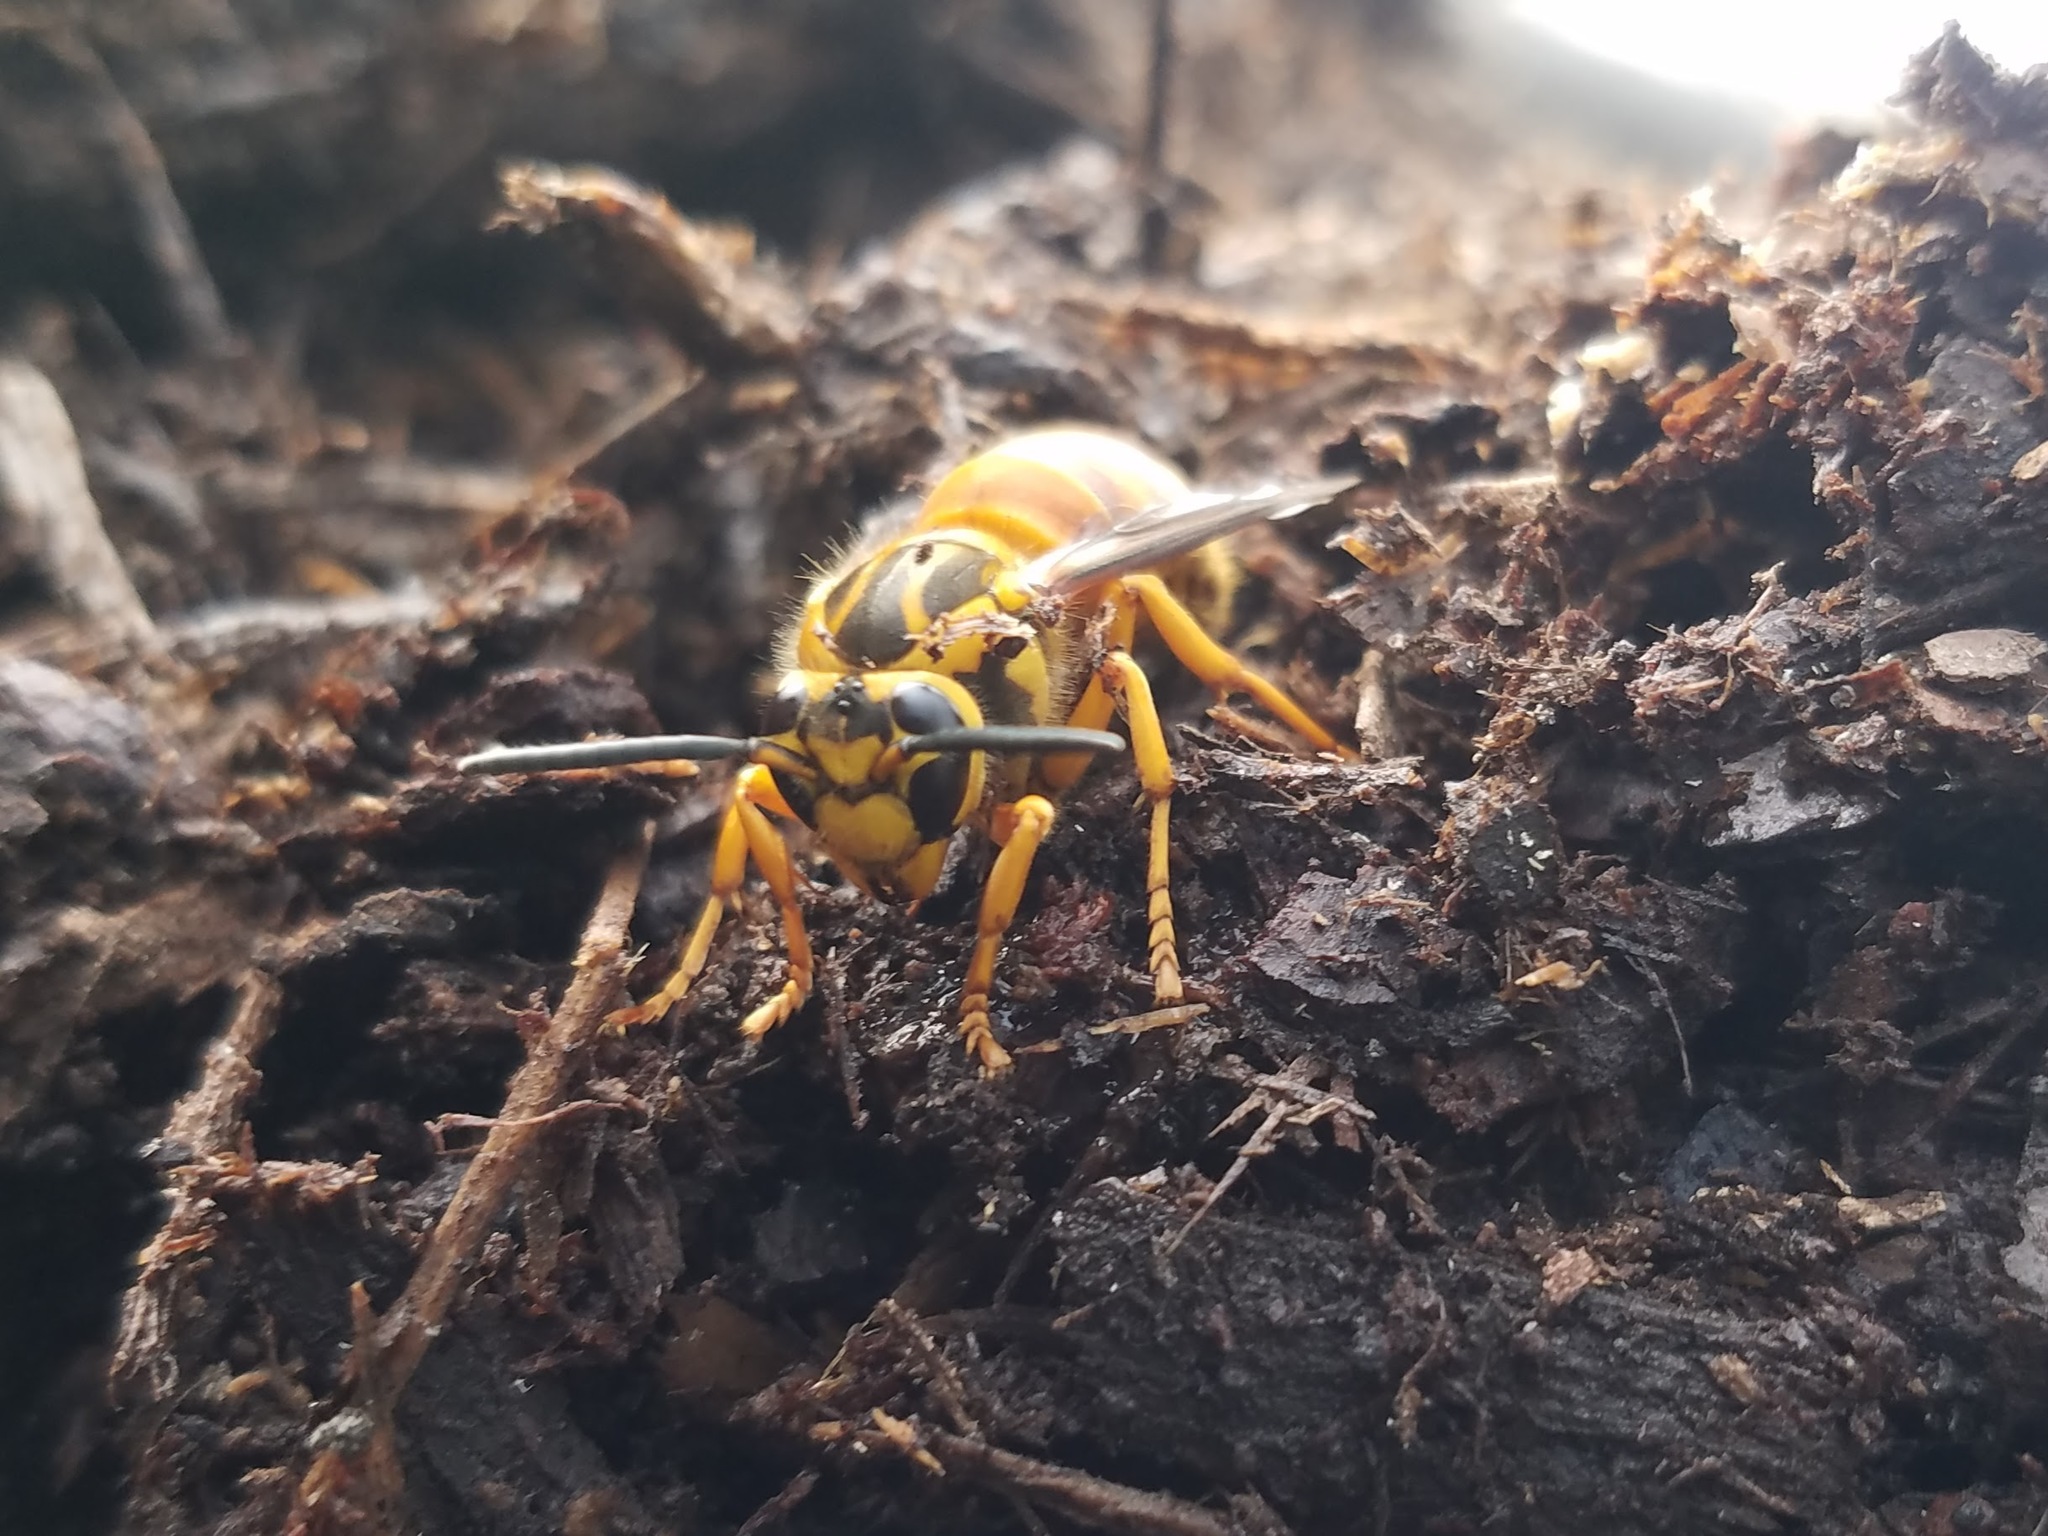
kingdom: Animalia
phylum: Arthropoda
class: Insecta
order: Hymenoptera
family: Vespidae
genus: Vespula
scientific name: Vespula squamosa
